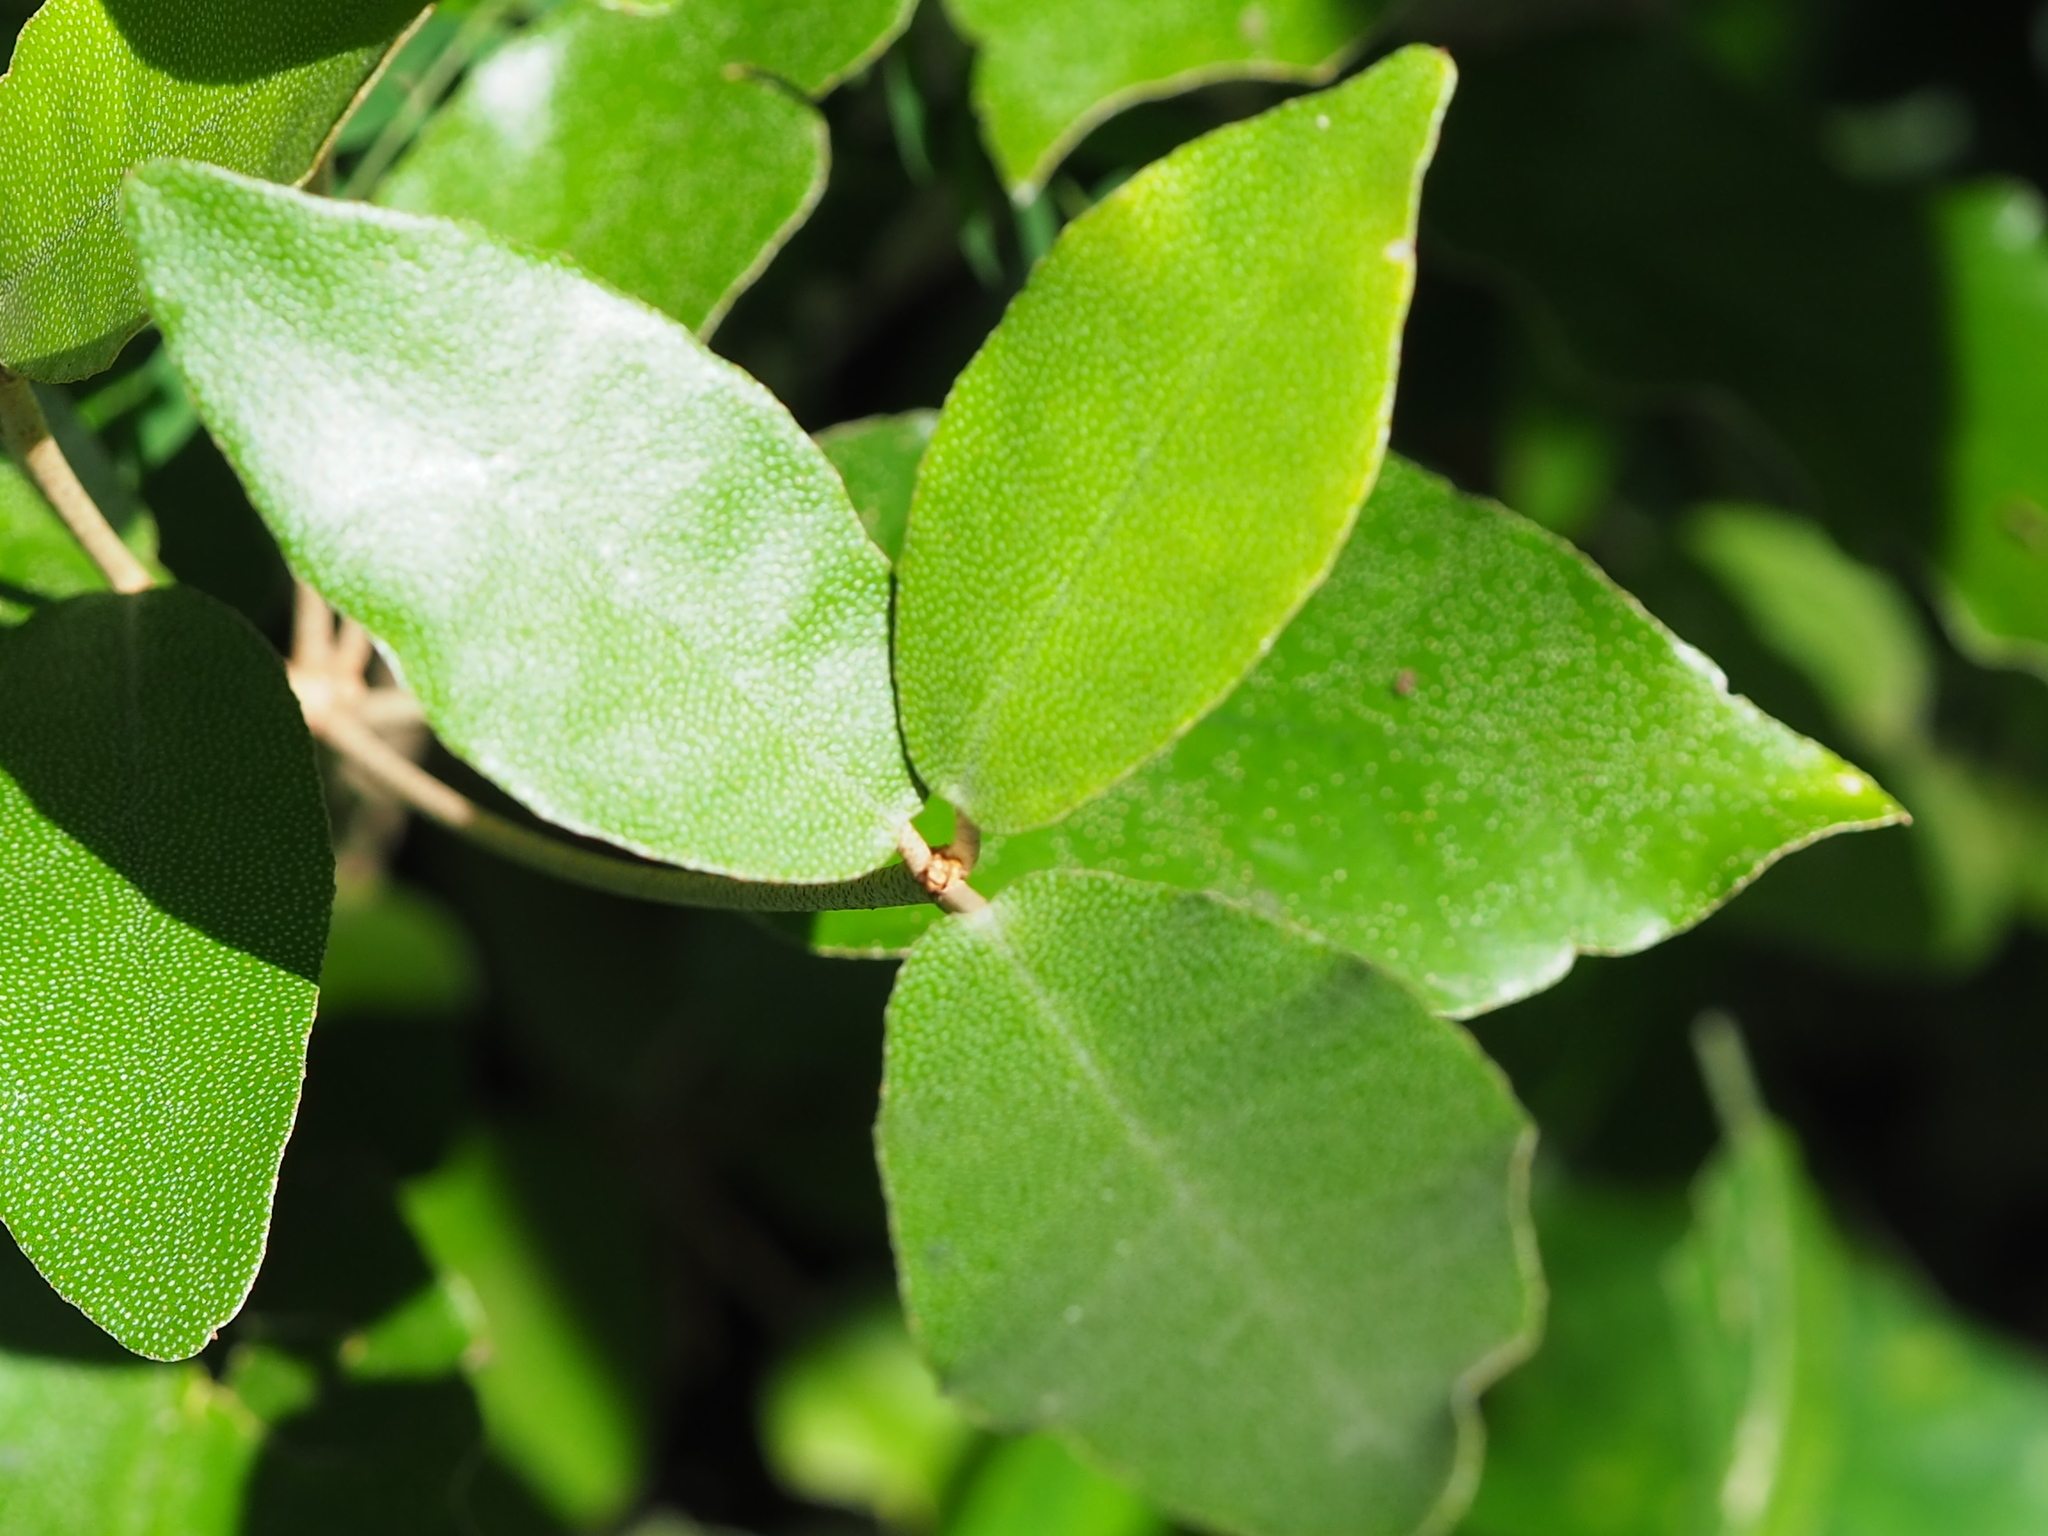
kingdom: Plantae
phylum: Tracheophyta
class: Magnoliopsida
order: Malpighiales
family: Euphorbiaceae
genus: Croton
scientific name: Croton cascarilloides
